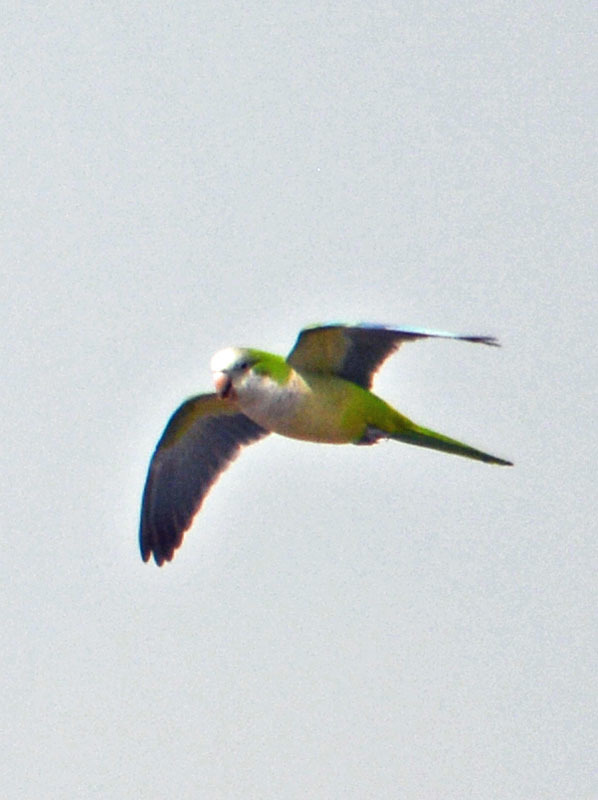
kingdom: Animalia
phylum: Chordata
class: Aves
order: Psittaciformes
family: Psittacidae
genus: Myiopsitta
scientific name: Myiopsitta monachus
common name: Monk parakeet
